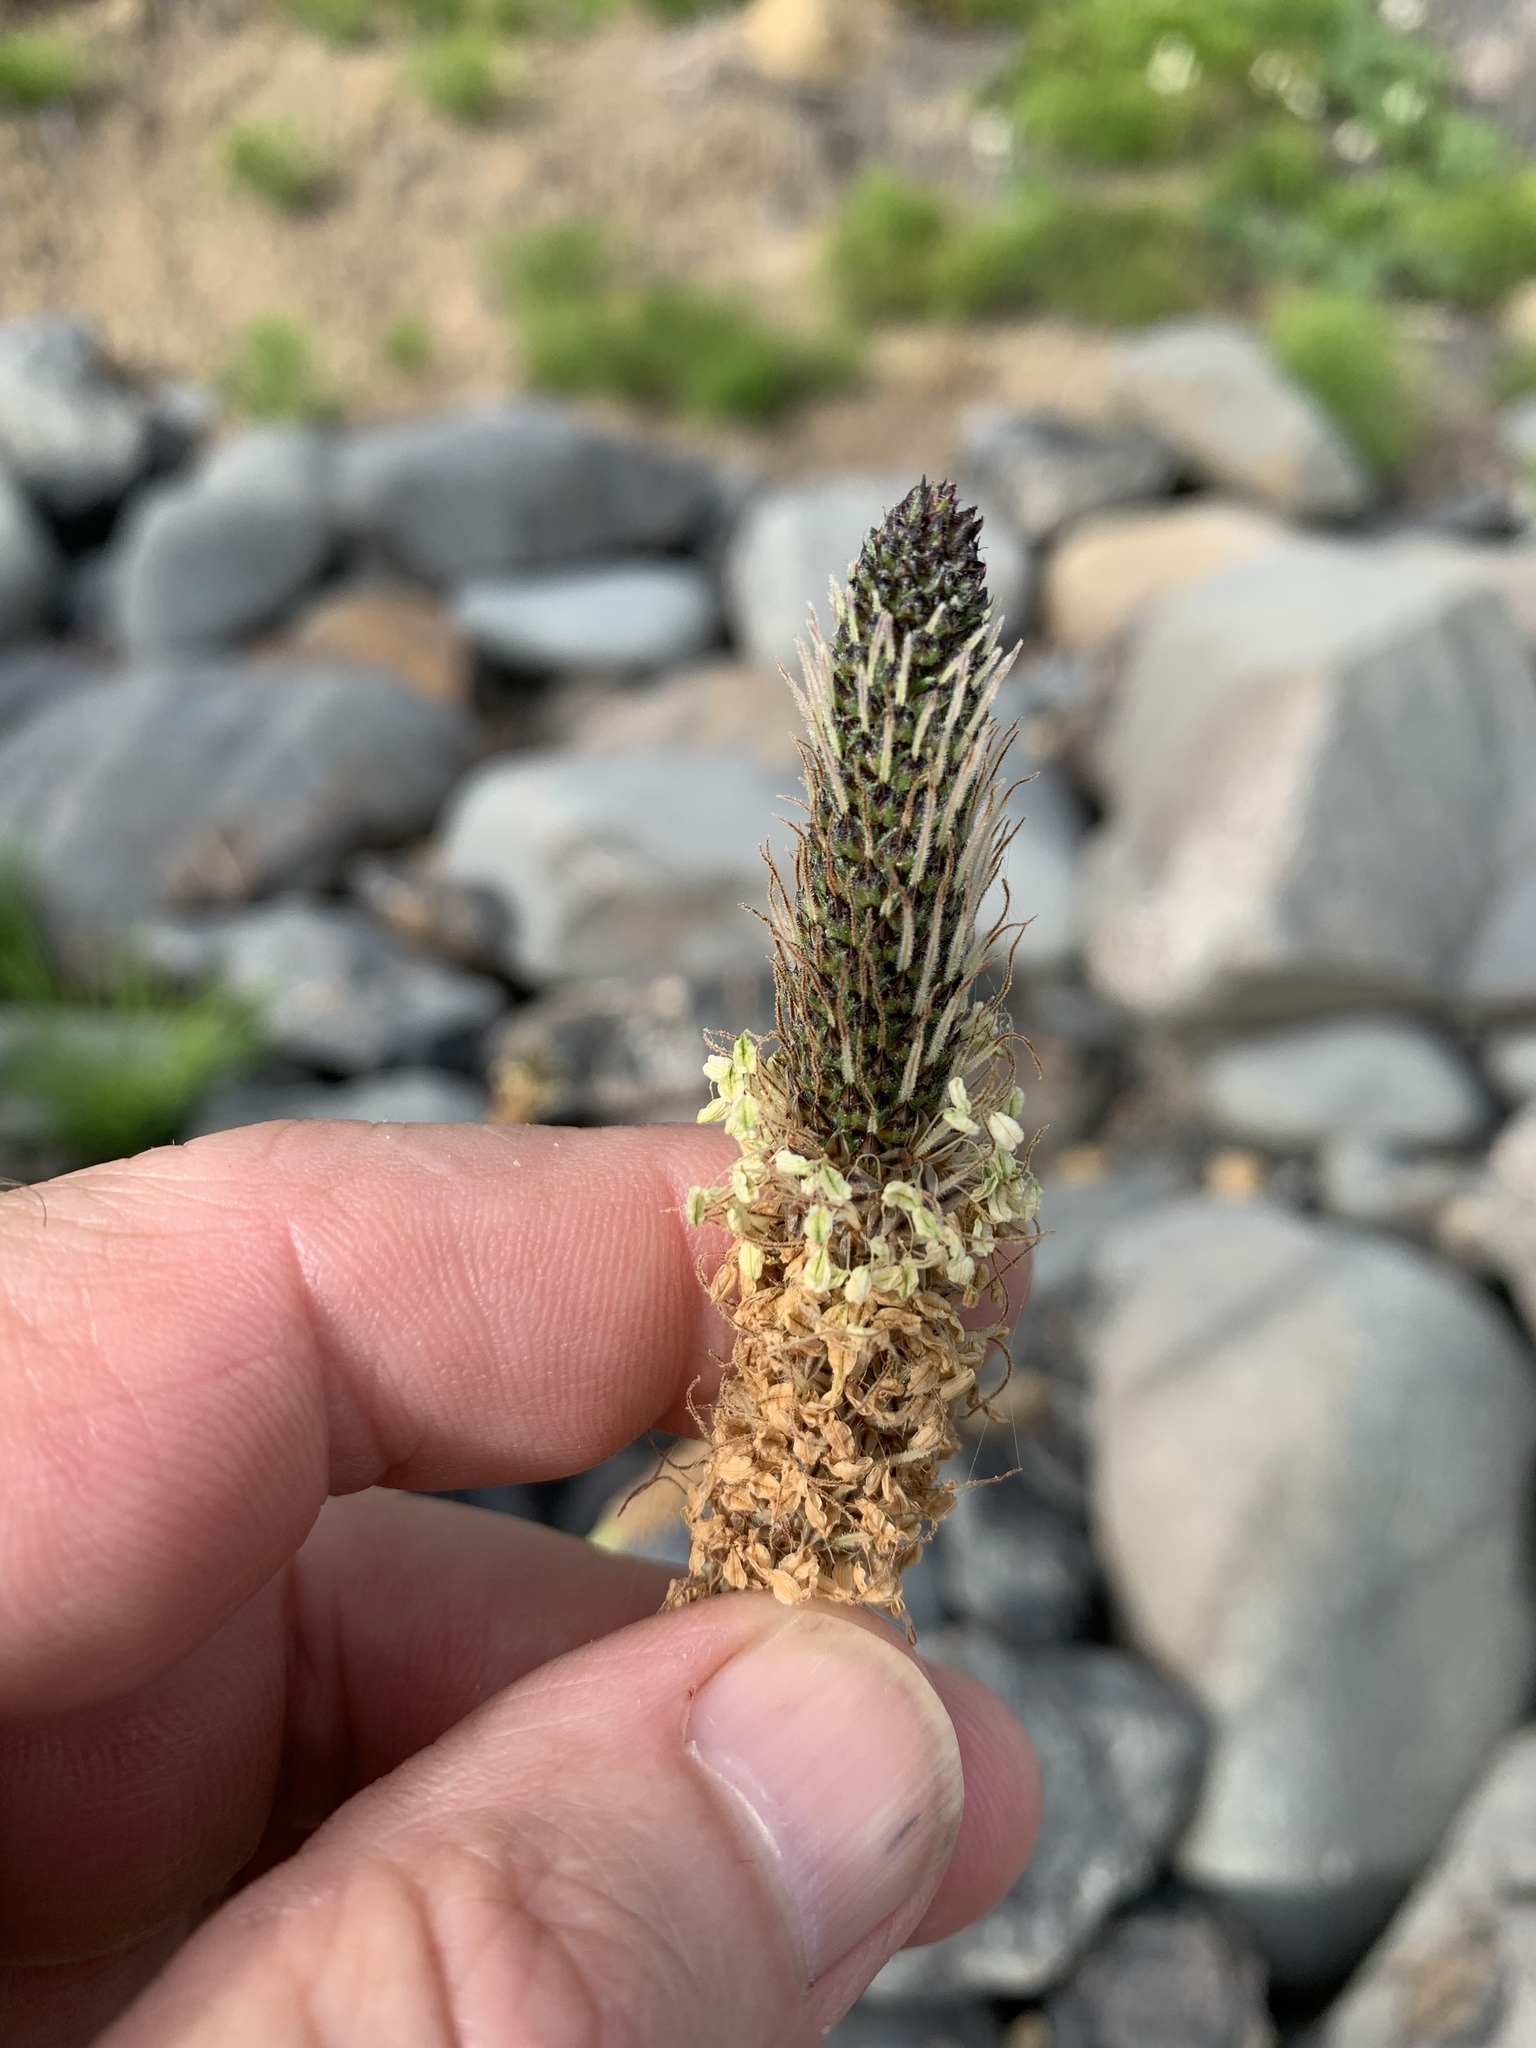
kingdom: Plantae
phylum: Tracheophyta
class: Magnoliopsida
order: Lamiales
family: Plantaginaceae
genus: Plantago
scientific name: Plantago lanceolata
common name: Ribwort plantain
